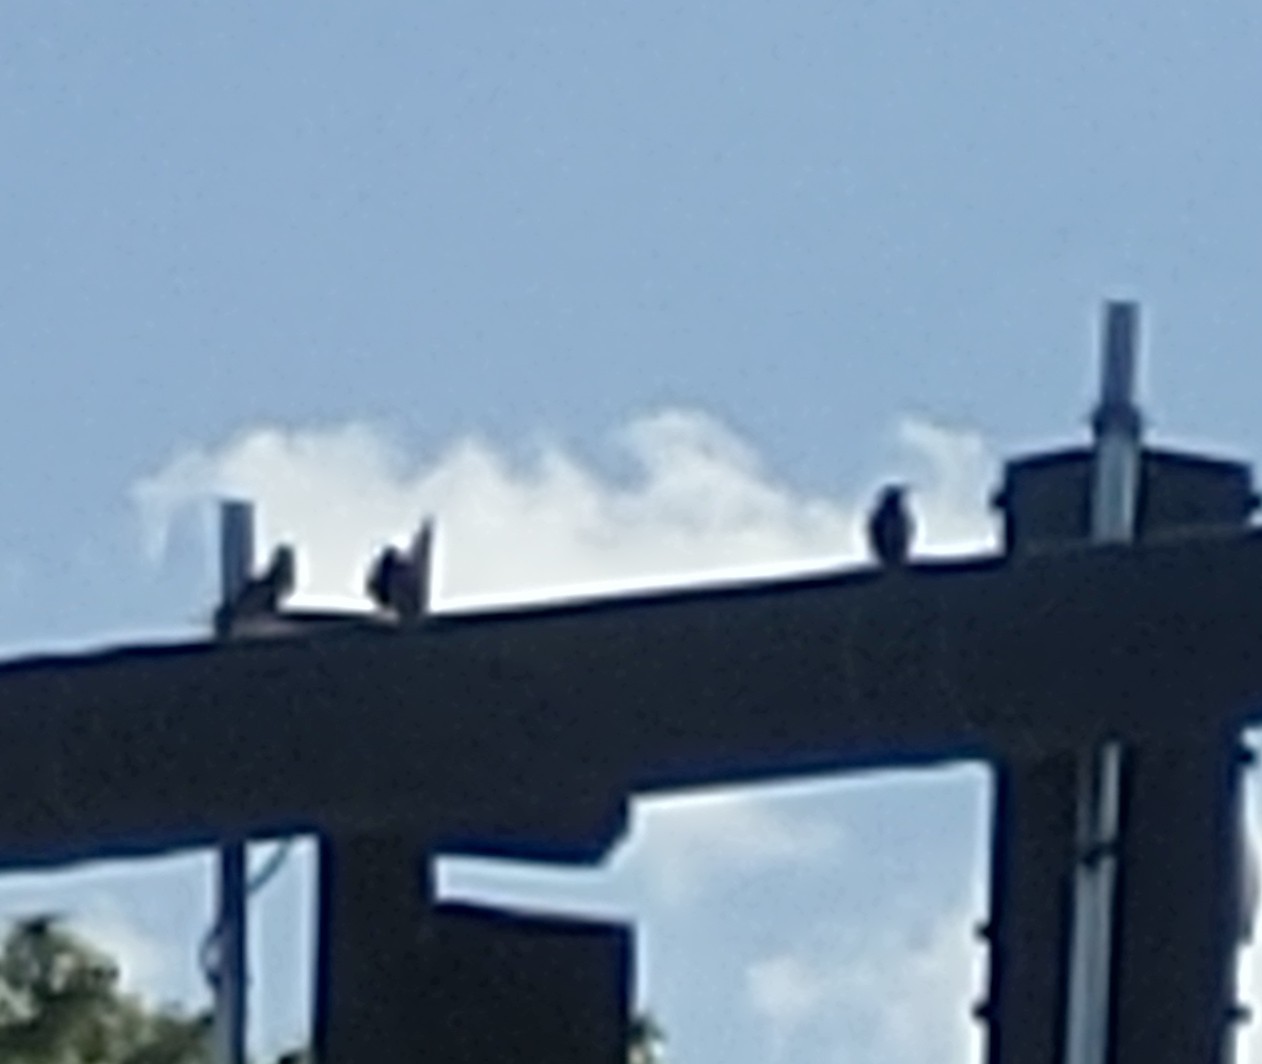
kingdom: Animalia
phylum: Chordata
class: Aves
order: Passeriformes
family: Sturnidae
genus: Sturnus
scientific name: Sturnus vulgaris
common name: Common starling
